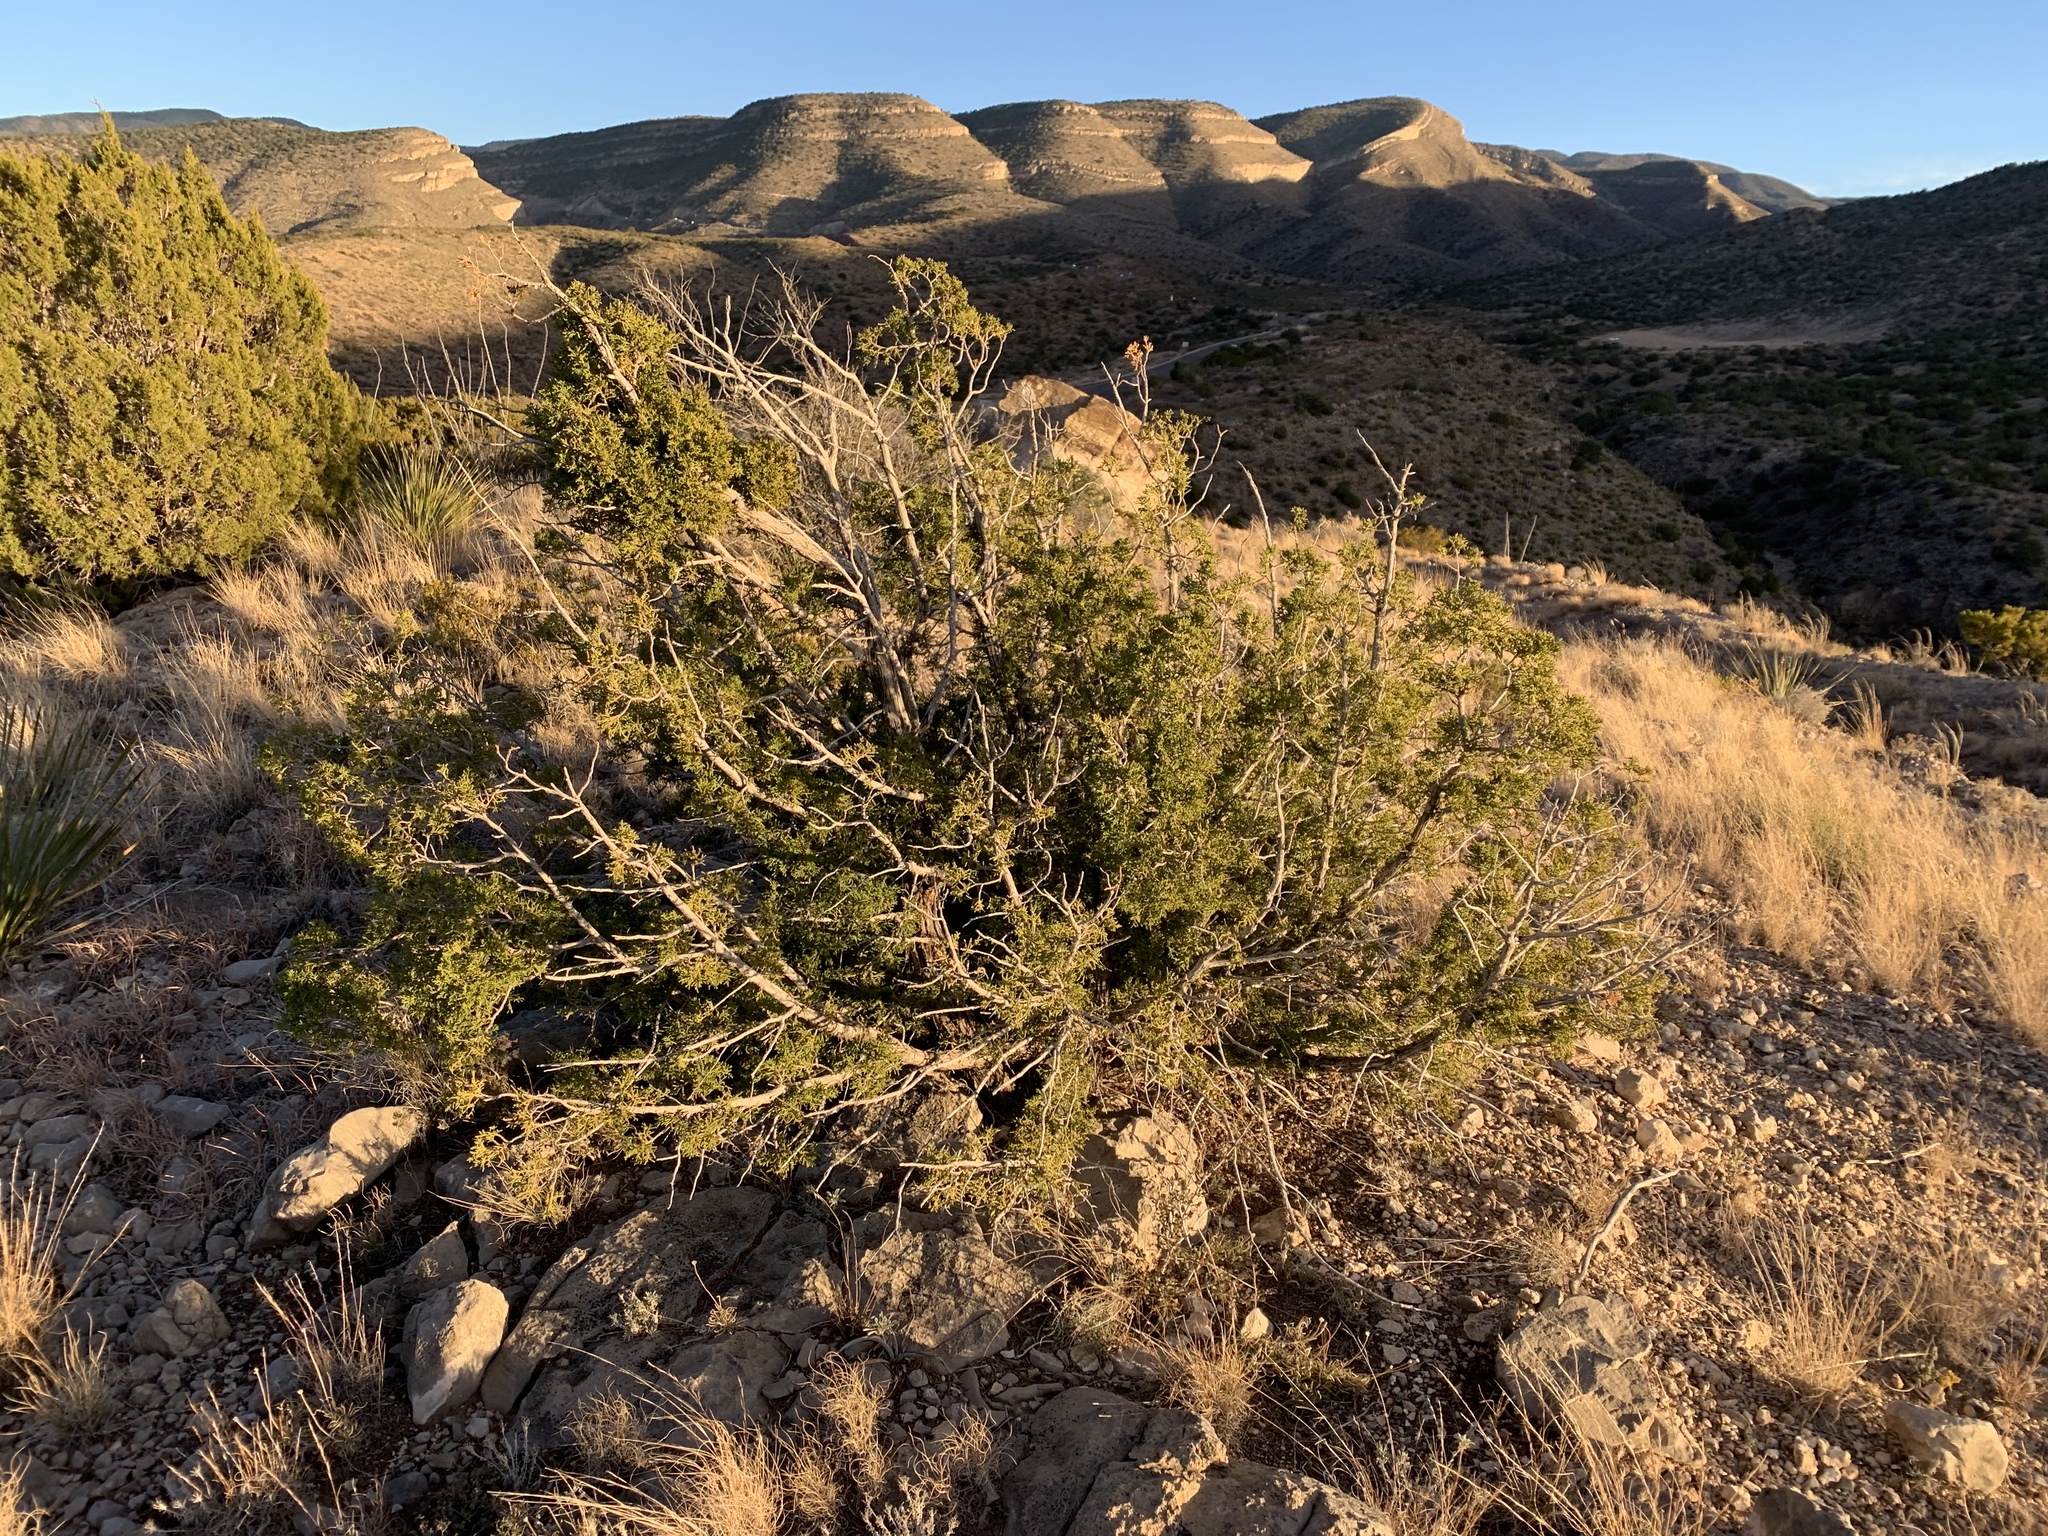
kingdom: Plantae
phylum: Tracheophyta
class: Pinopsida
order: Pinales
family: Cupressaceae
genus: Juniperus
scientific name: Juniperus monosperma
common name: One-seed juniper
